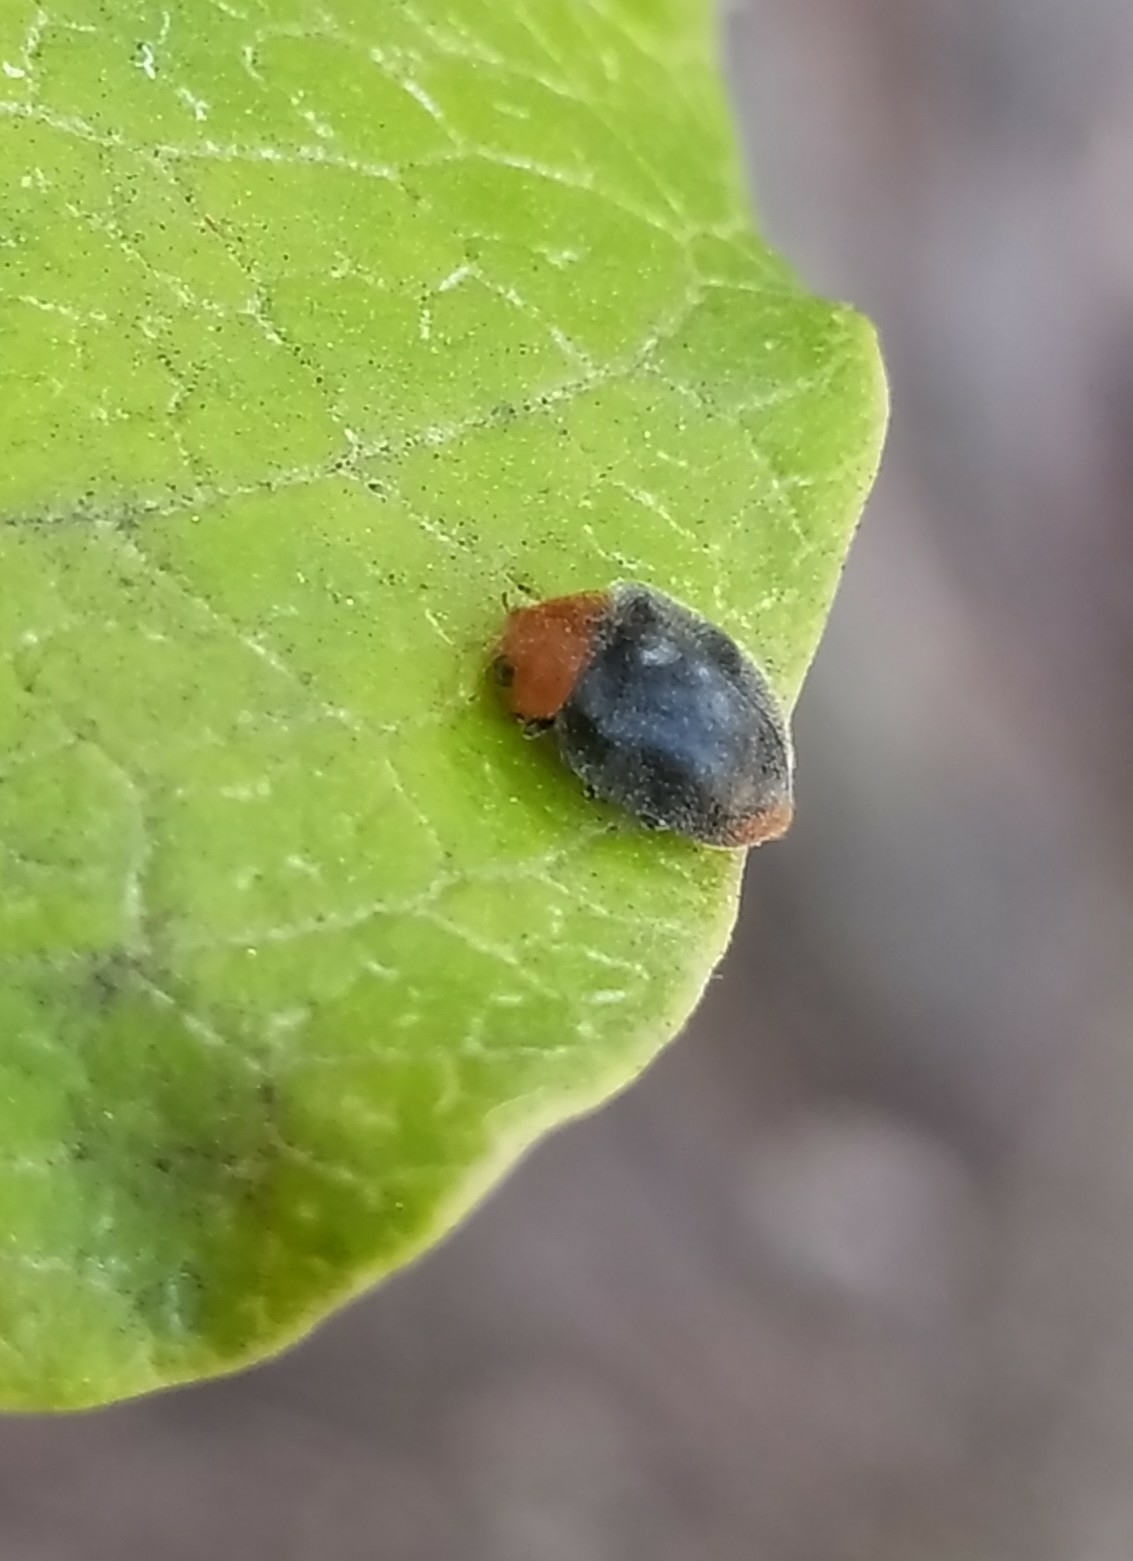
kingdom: Animalia
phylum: Arthropoda
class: Insecta
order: Coleoptera
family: Coccinellidae
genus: Cryptolaemus
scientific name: Cryptolaemus montrouzieri
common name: Mealybug destroyer
